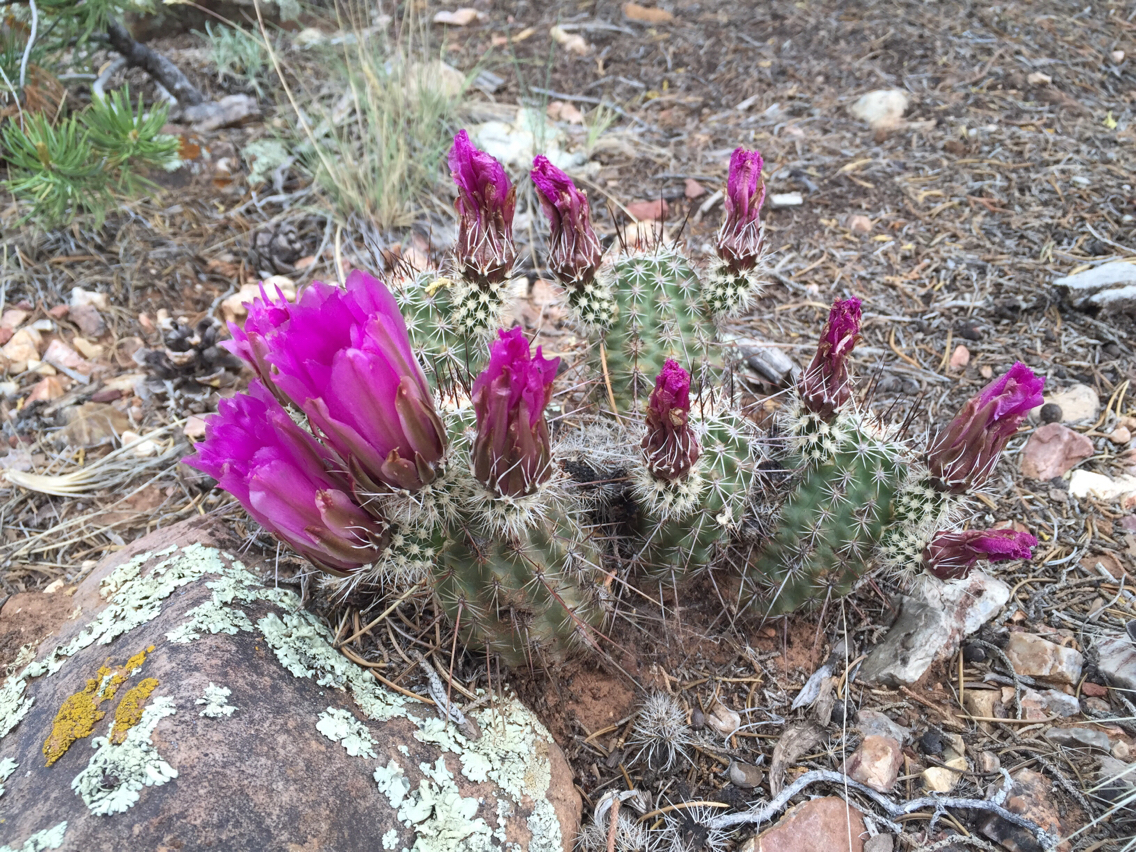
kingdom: Plantae
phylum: Tracheophyta
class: Magnoliopsida
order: Caryophyllales
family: Cactaceae
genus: Echinocereus
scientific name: Echinocereus fasciculatus
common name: Bundle hedgehog
